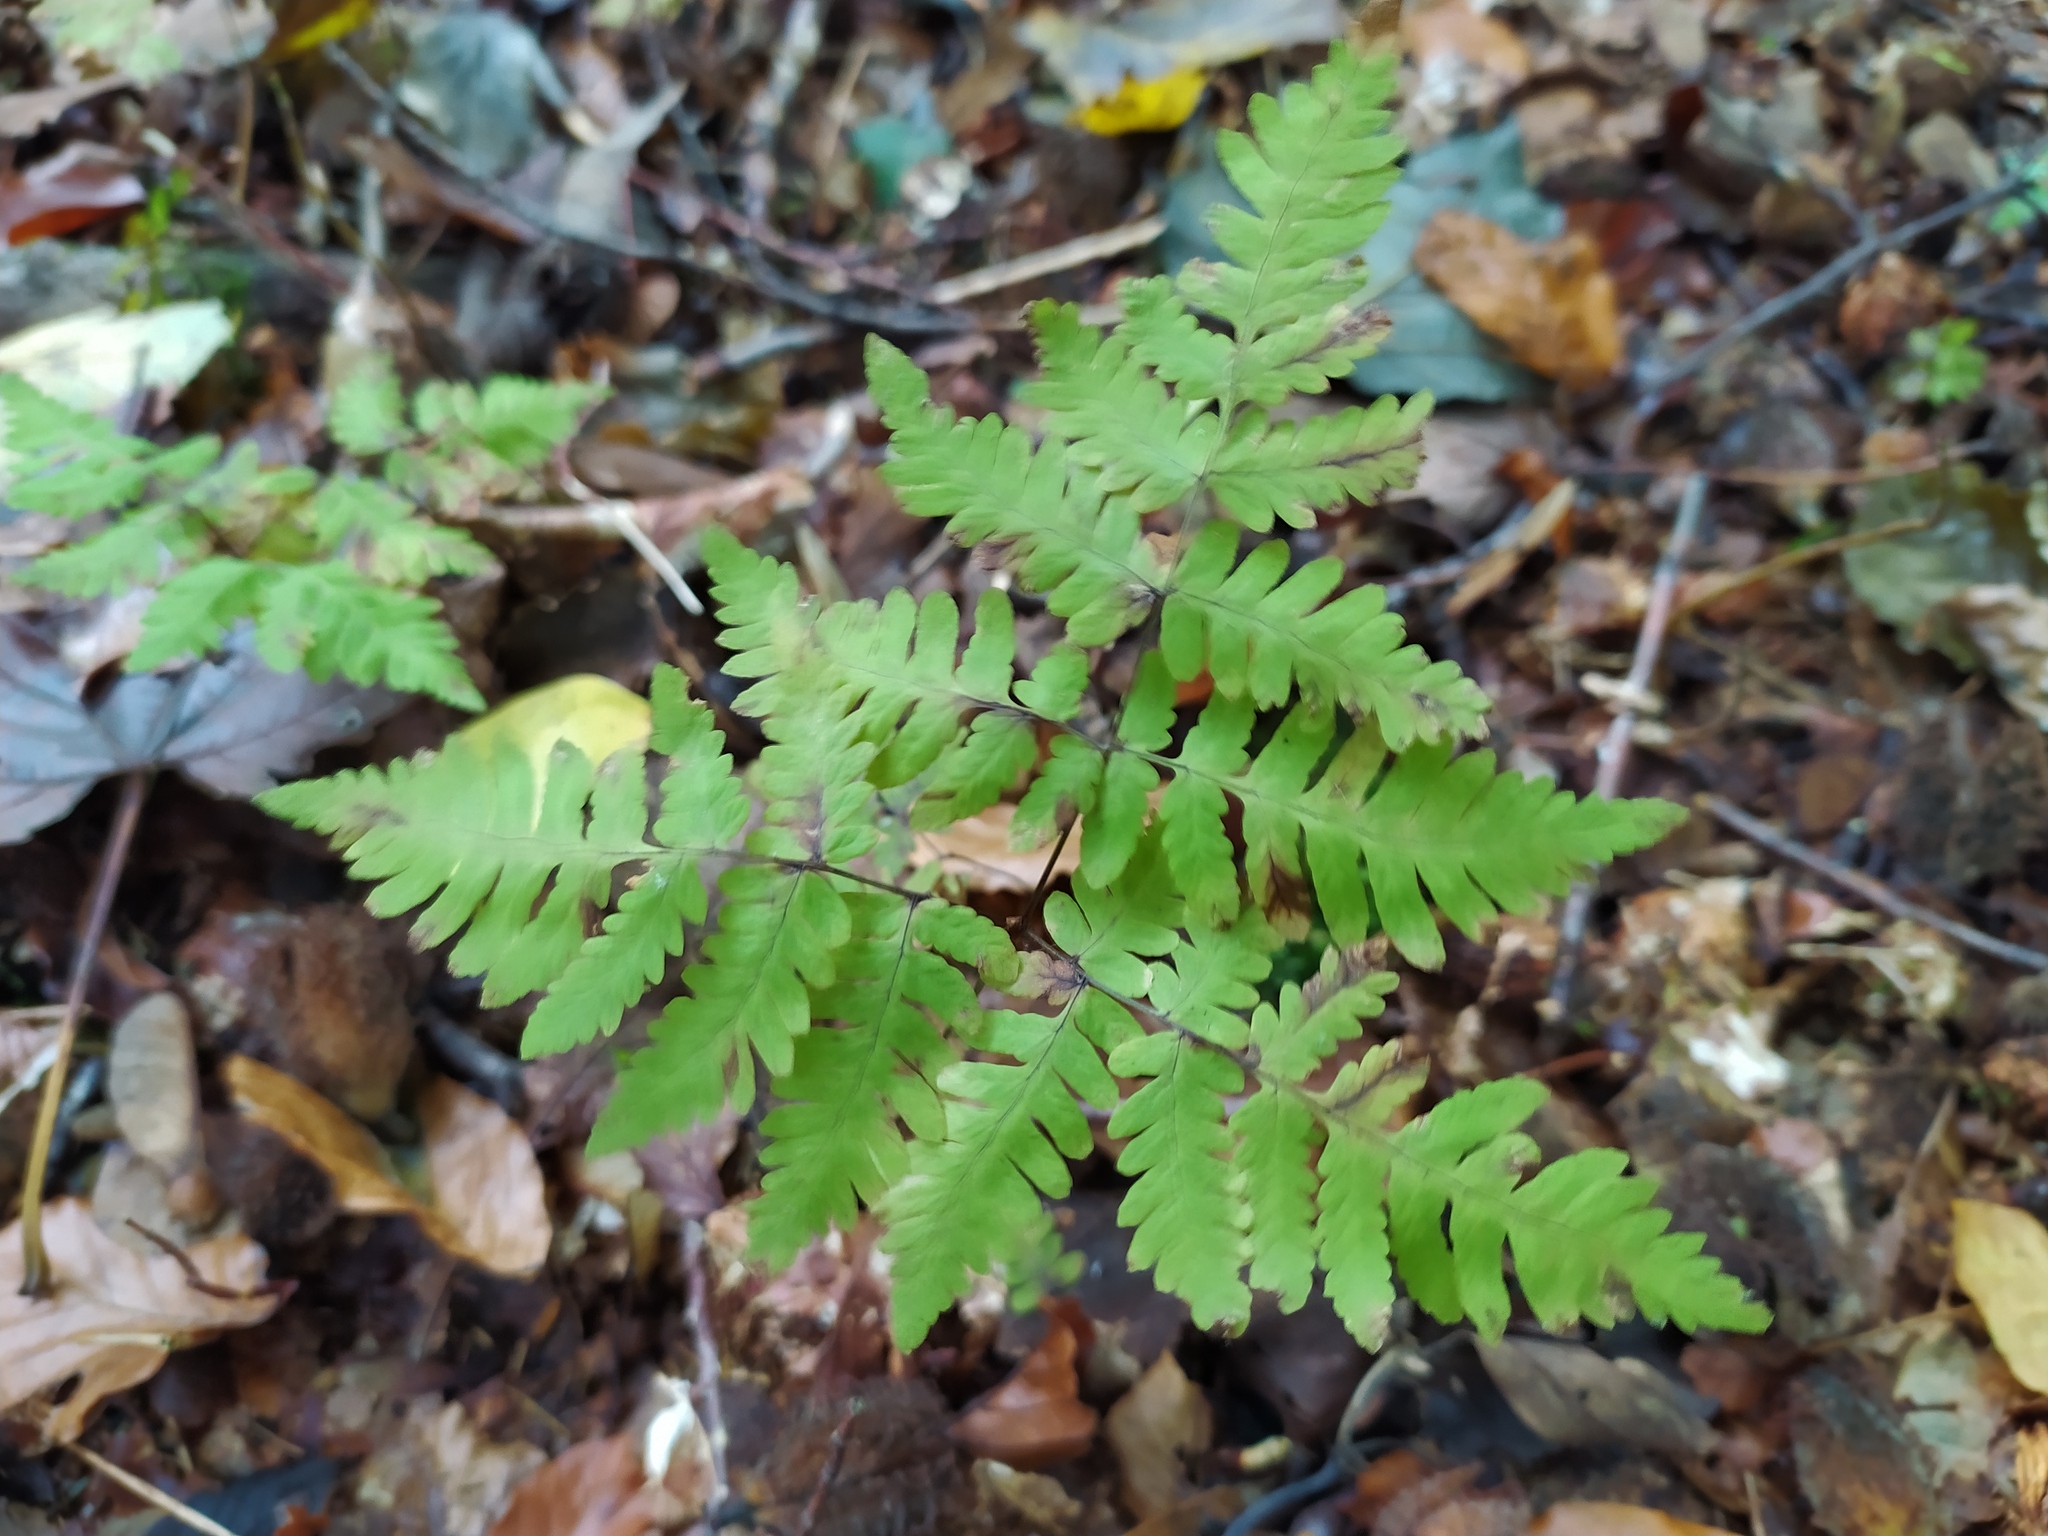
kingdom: Plantae
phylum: Tracheophyta
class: Polypodiopsida
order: Polypodiales
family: Cystopteridaceae
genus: Gymnocarpium
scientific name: Gymnocarpium dryopteris
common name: Oak fern
